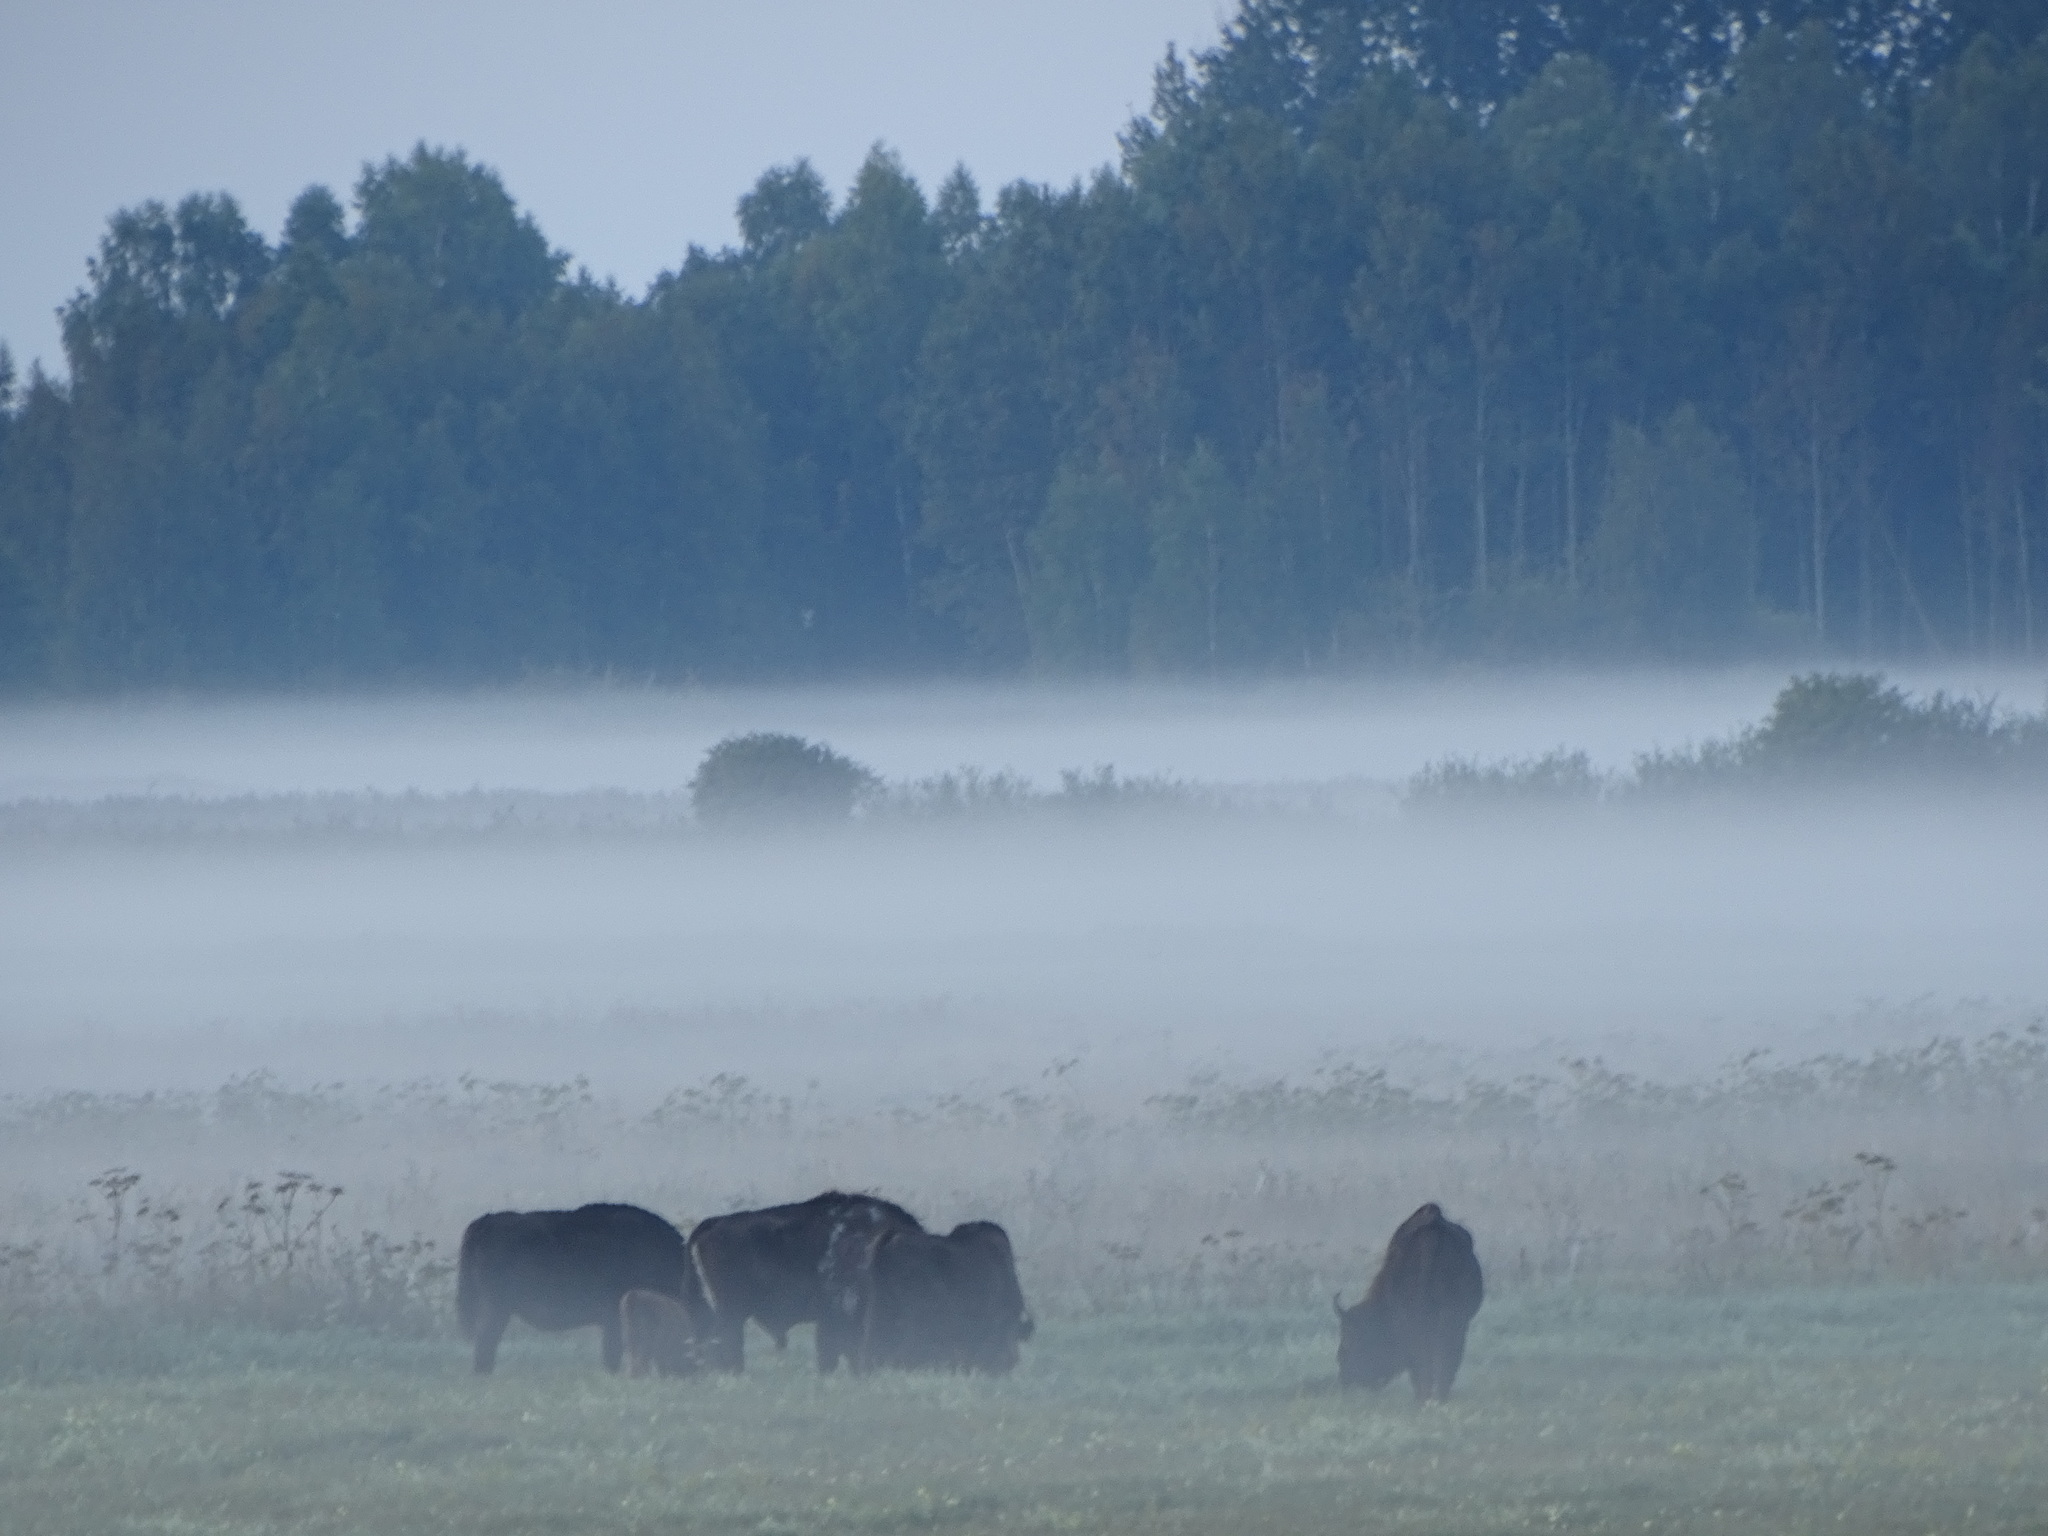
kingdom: Animalia
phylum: Chordata
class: Mammalia
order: Artiodactyla
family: Bovidae
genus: Bison
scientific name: Bison bonasus
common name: European bison
